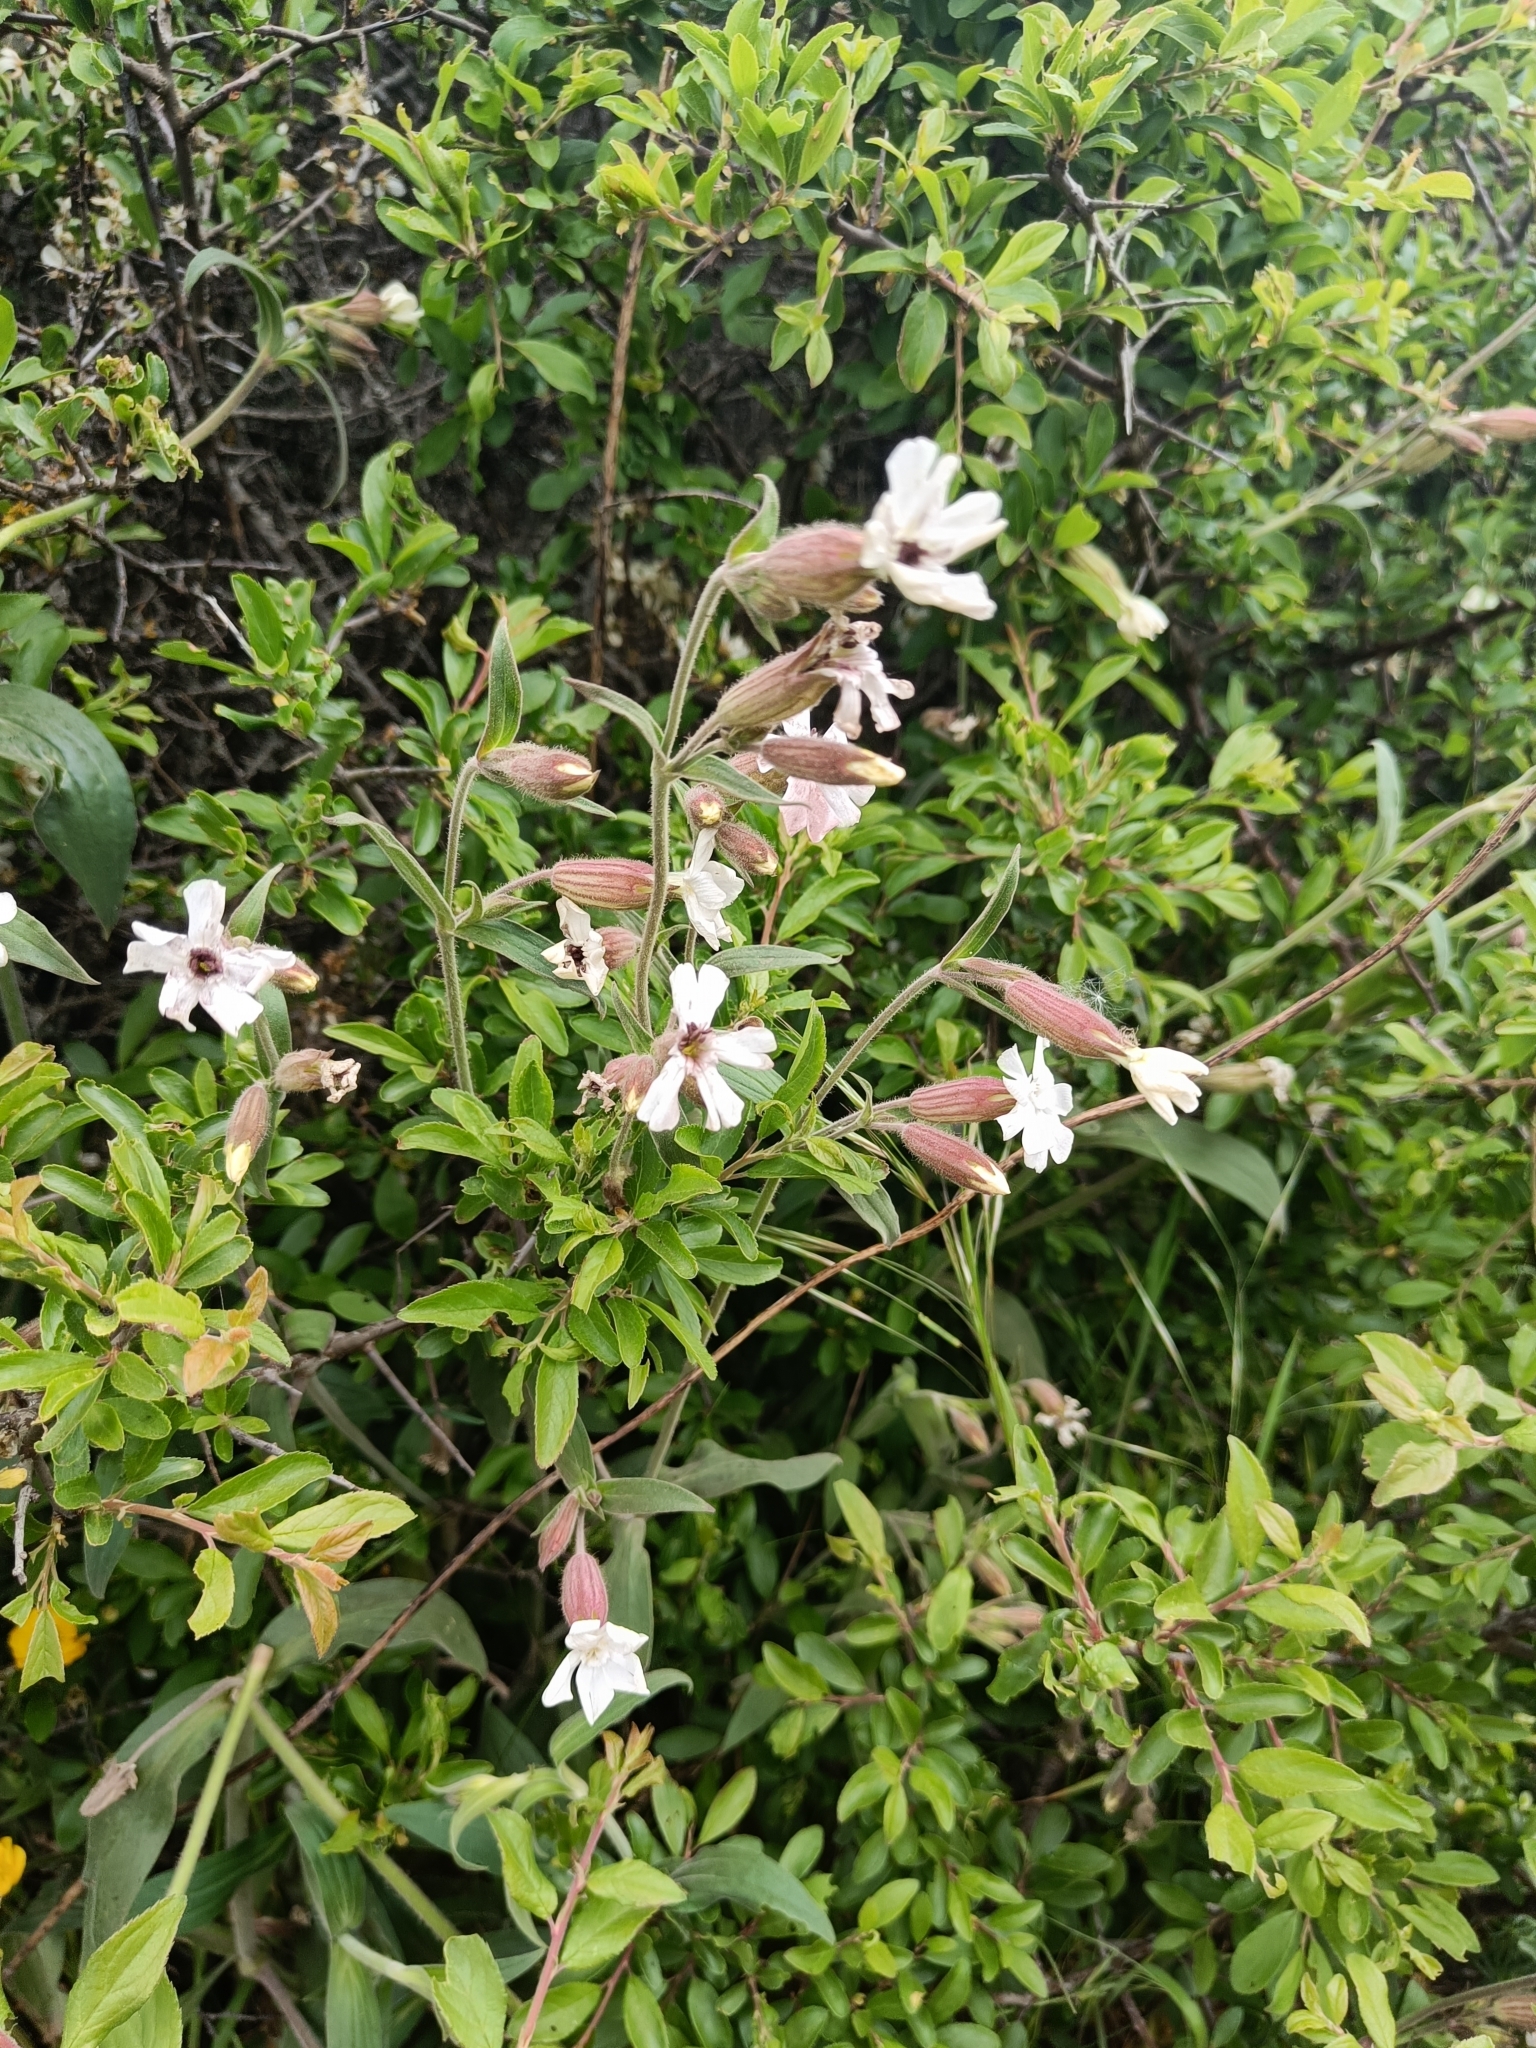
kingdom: Plantae
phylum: Tracheophyta
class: Magnoliopsida
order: Caryophyllales
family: Caryophyllaceae
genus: Silene
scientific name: Silene latifolia
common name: White campion
